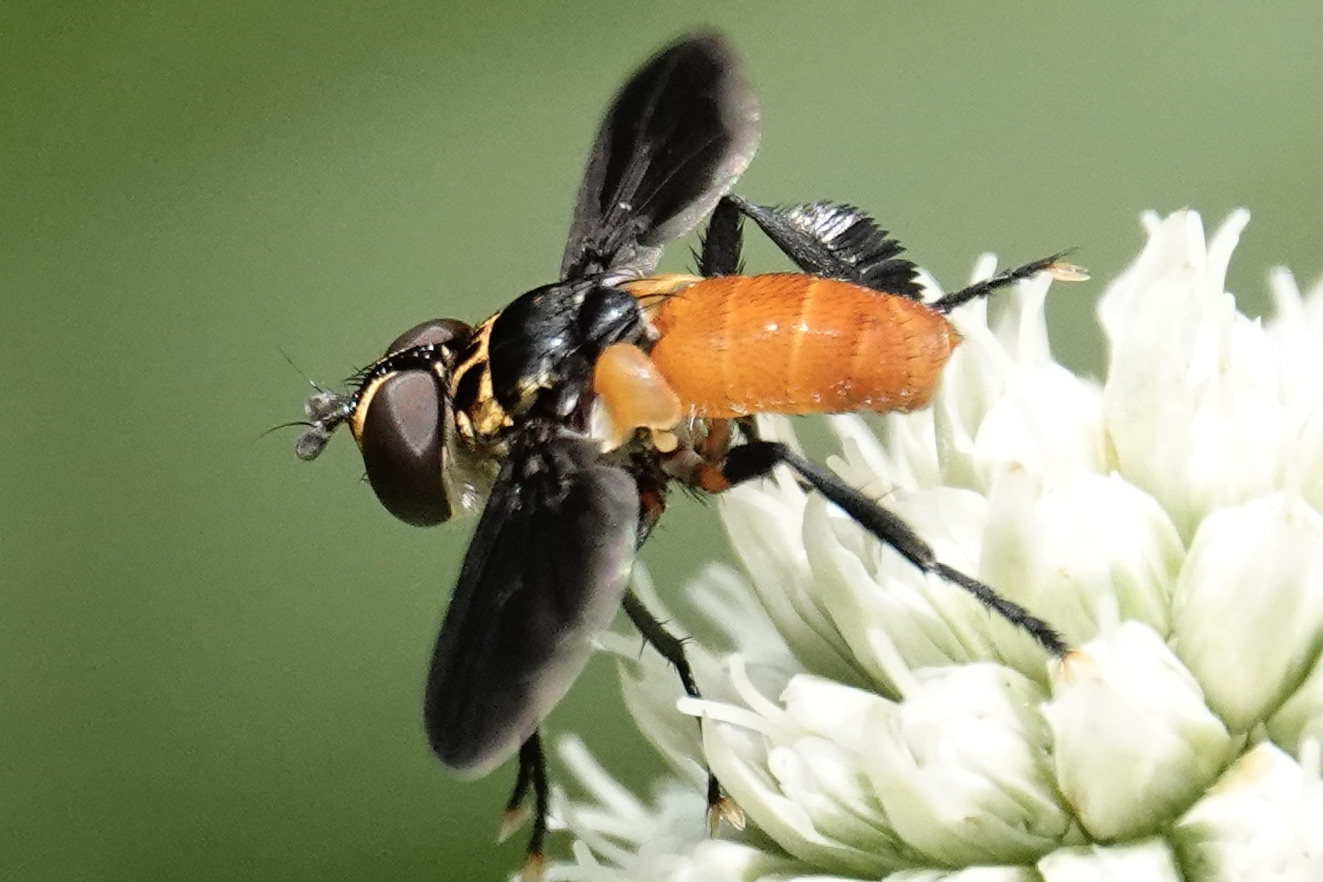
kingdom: Animalia
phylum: Arthropoda
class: Insecta
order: Diptera
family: Tachinidae
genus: Trichopoda
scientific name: Trichopoda pennipes
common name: Tachinid fly
